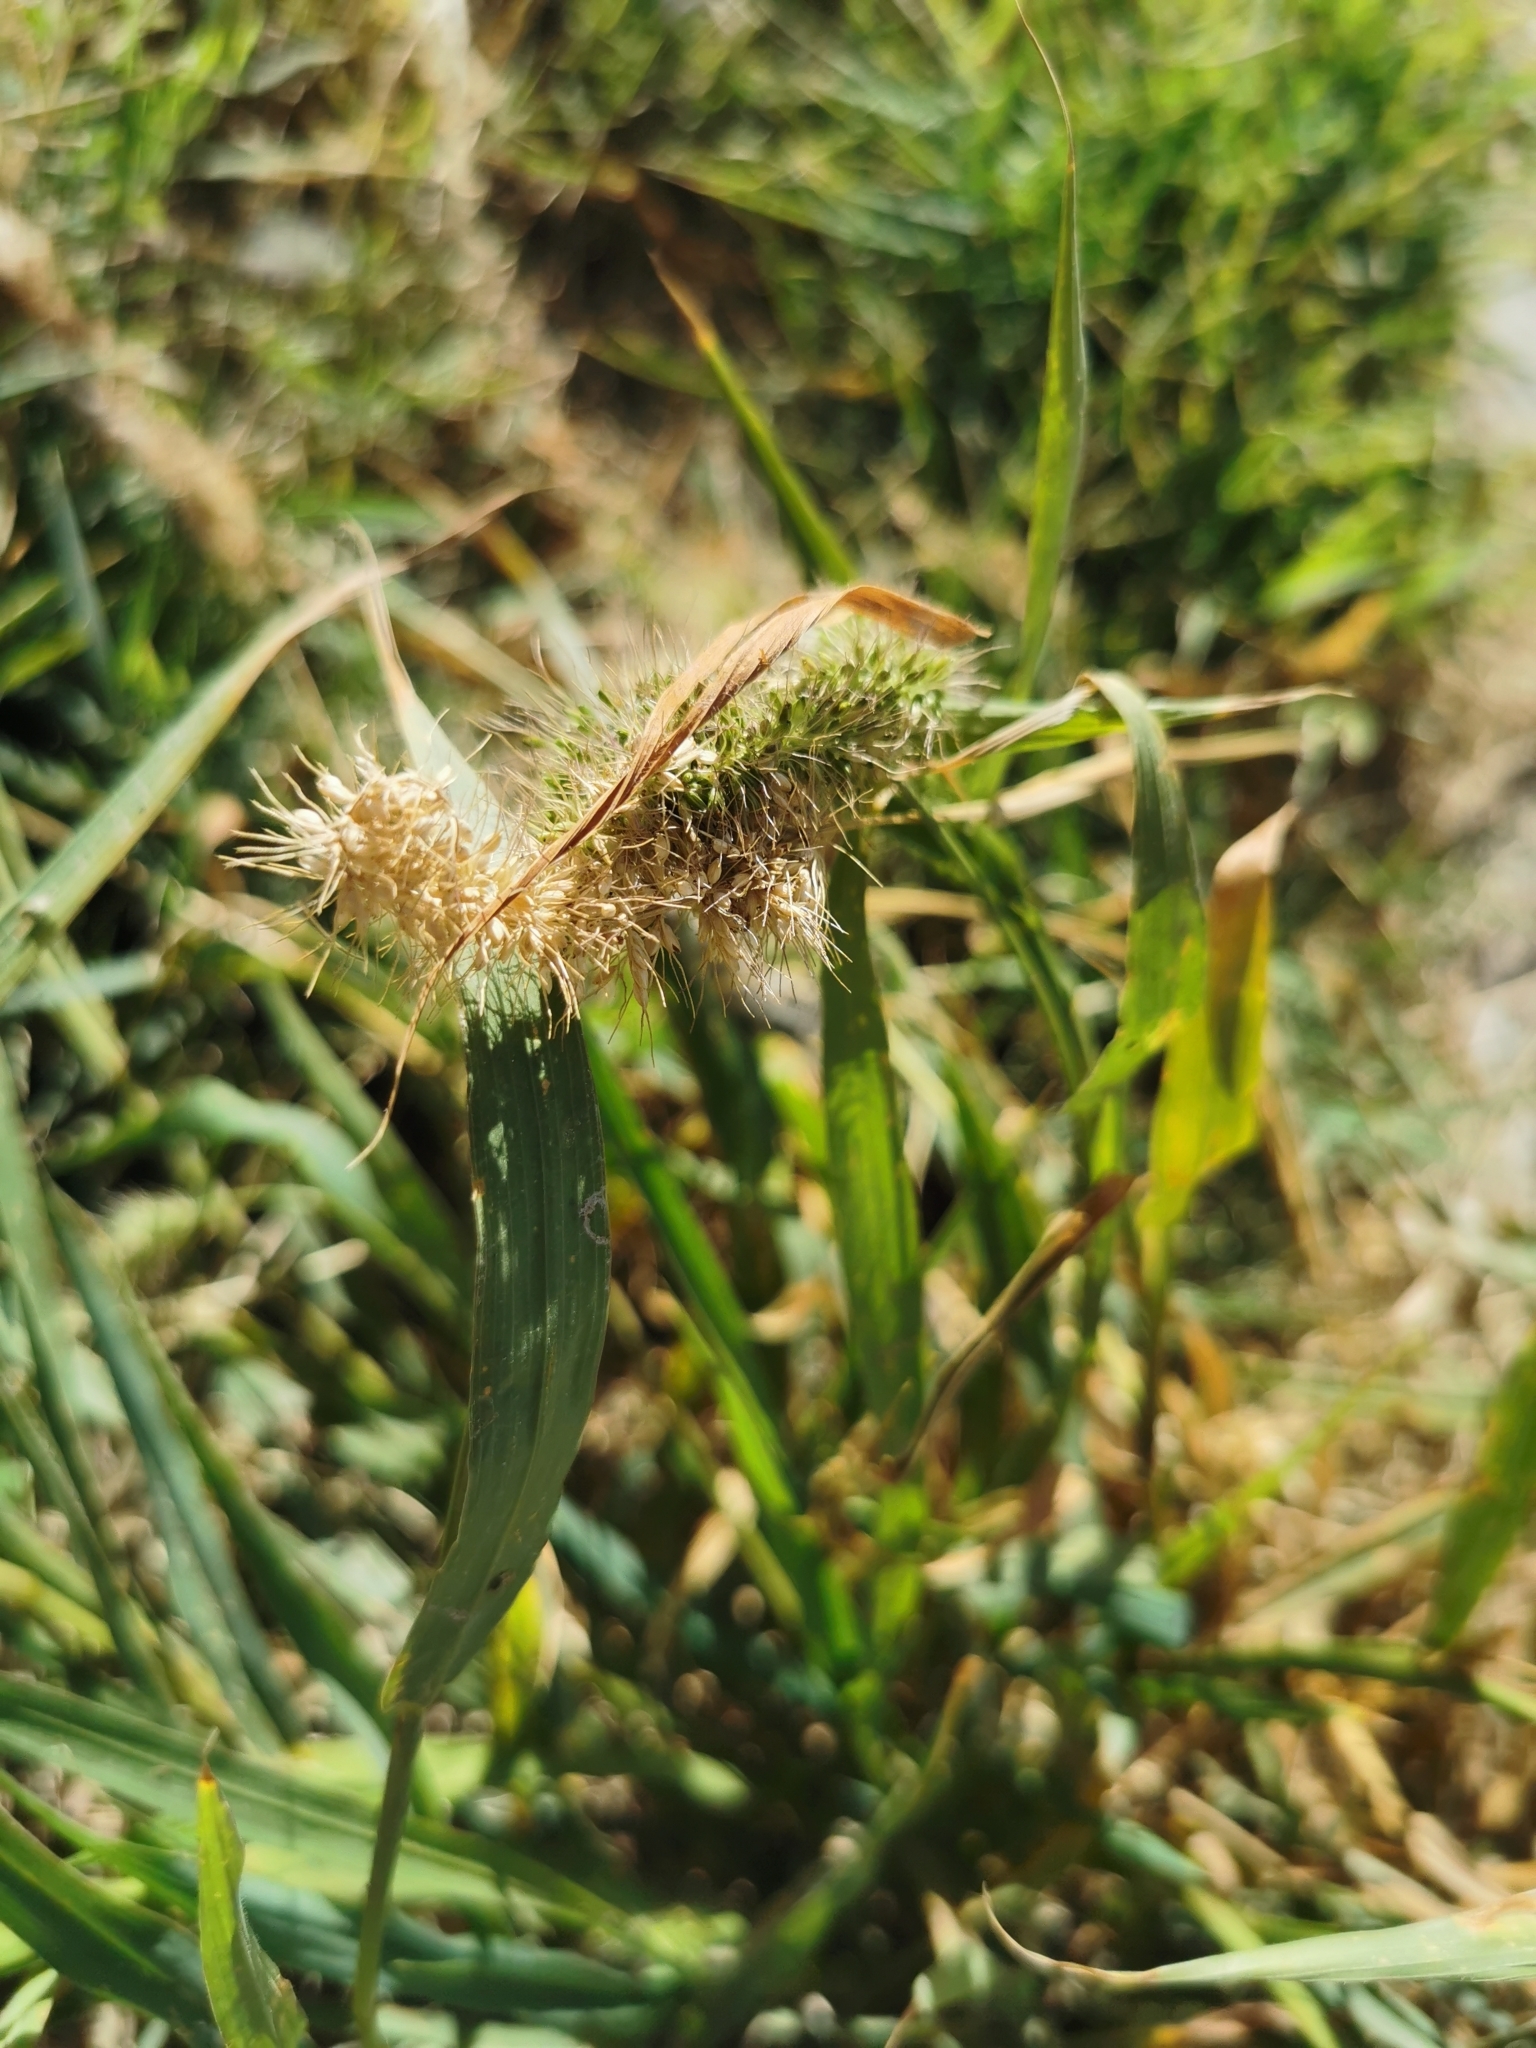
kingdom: Plantae
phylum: Tracheophyta
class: Liliopsida
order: Poales
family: Poaceae
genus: Setaria
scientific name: Setaria adhaerens
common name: Adherent bristle-grass
